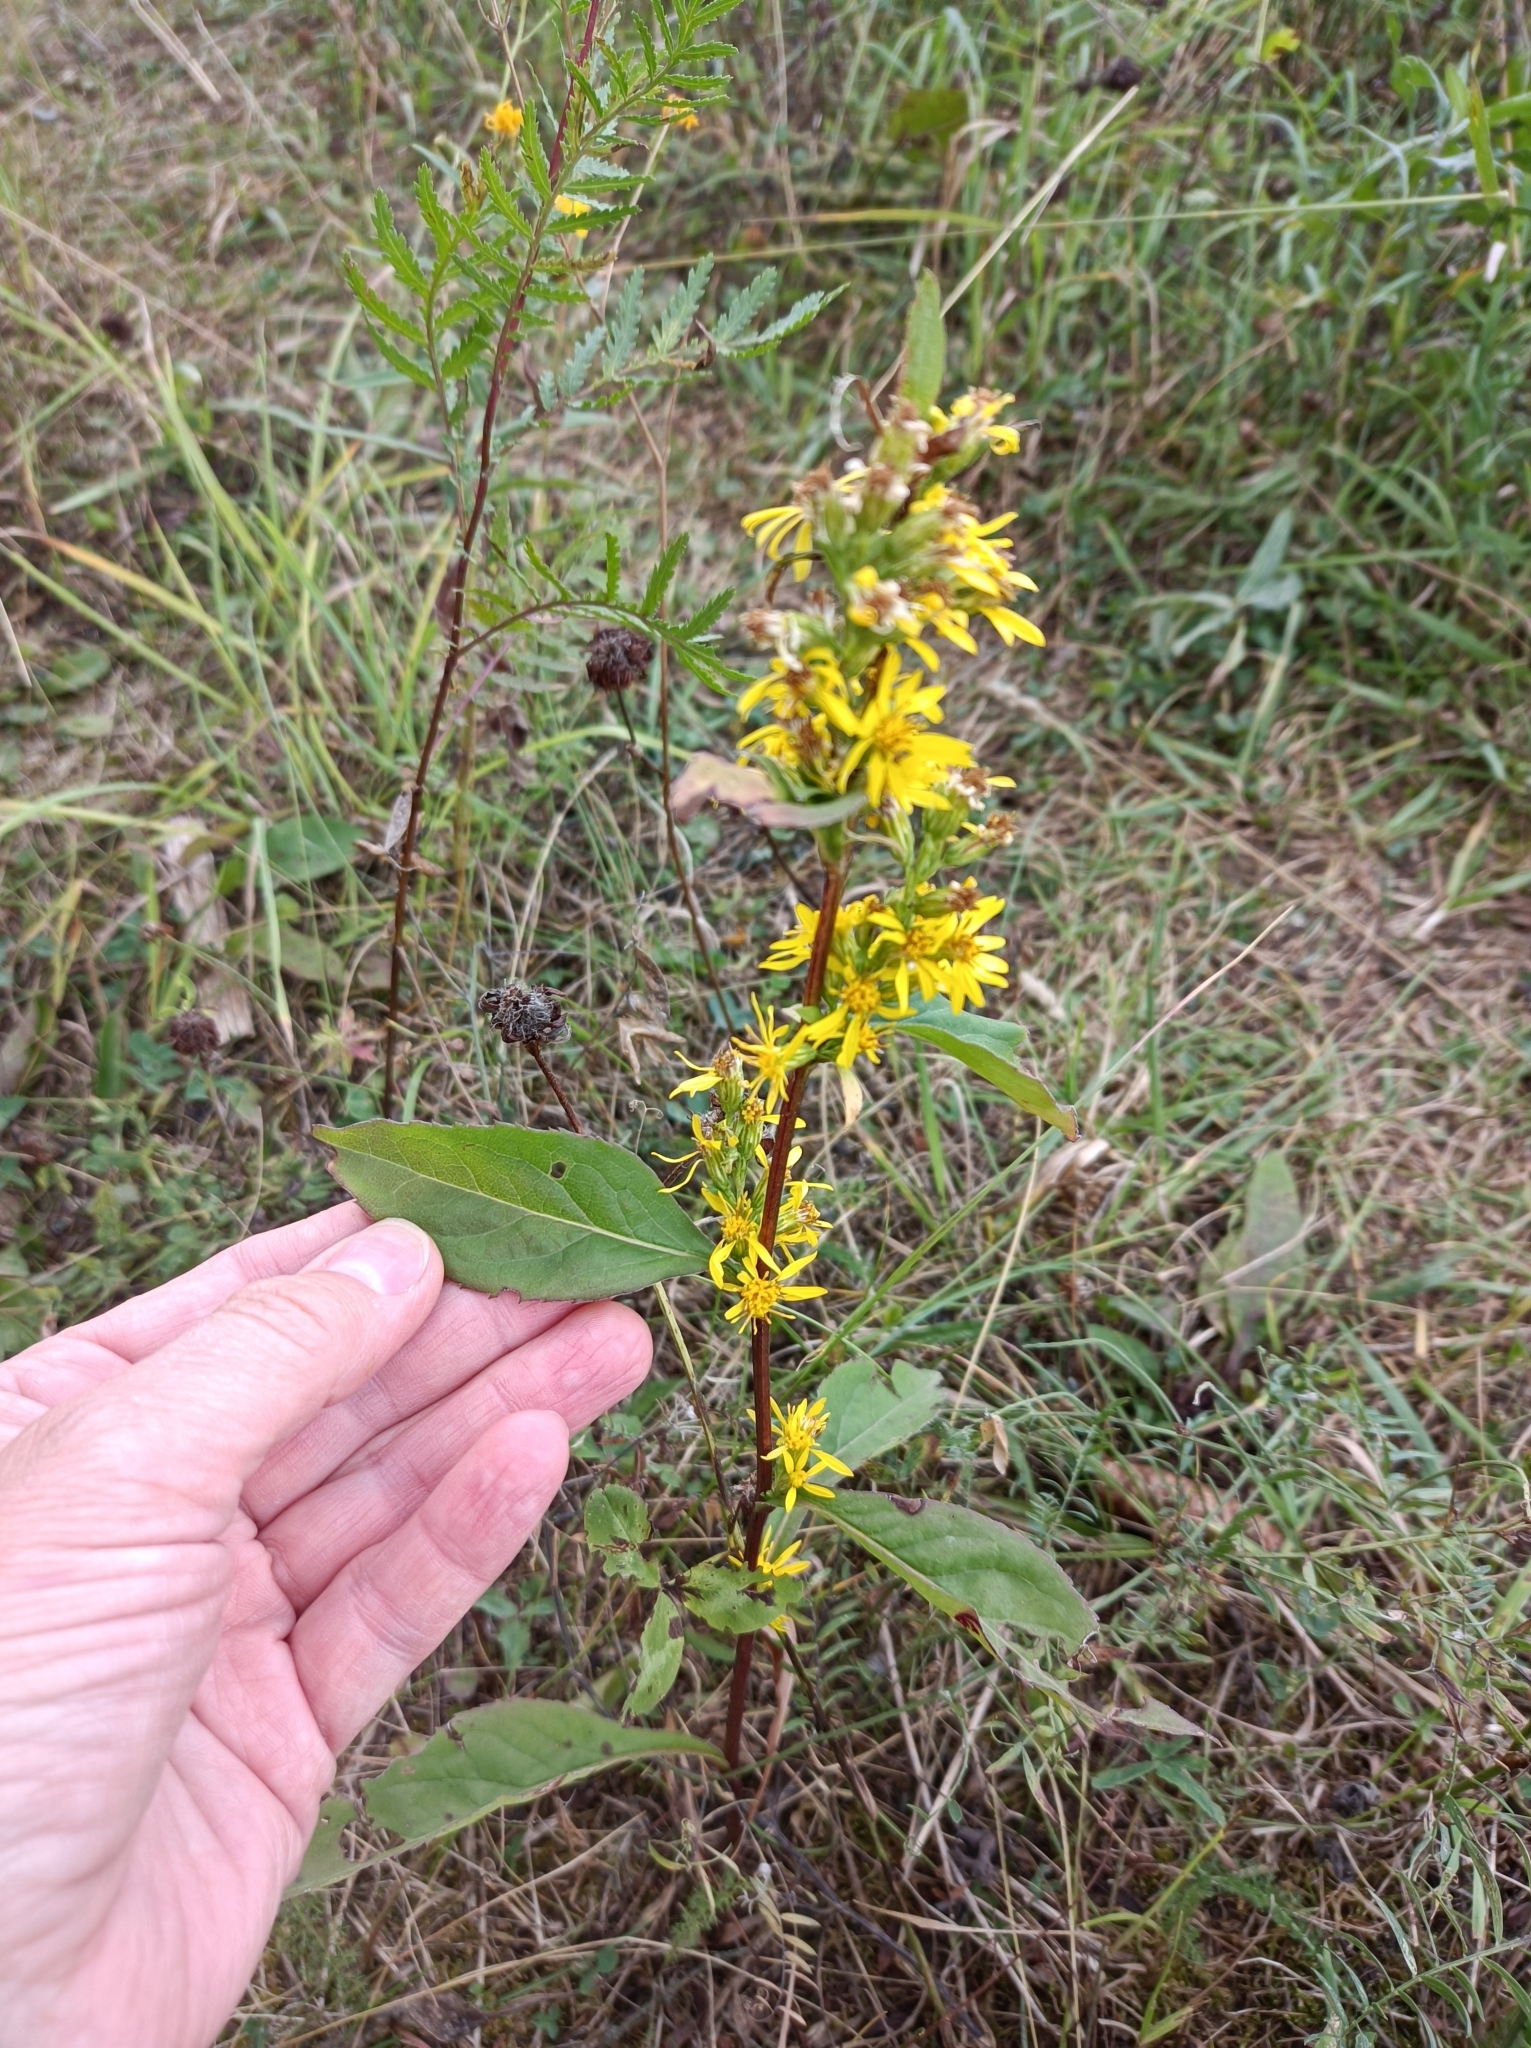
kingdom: Plantae
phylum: Tracheophyta
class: Magnoliopsida
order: Asterales
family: Asteraceae
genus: Solidago
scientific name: Solidago virgaurea
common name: Goldenrod
